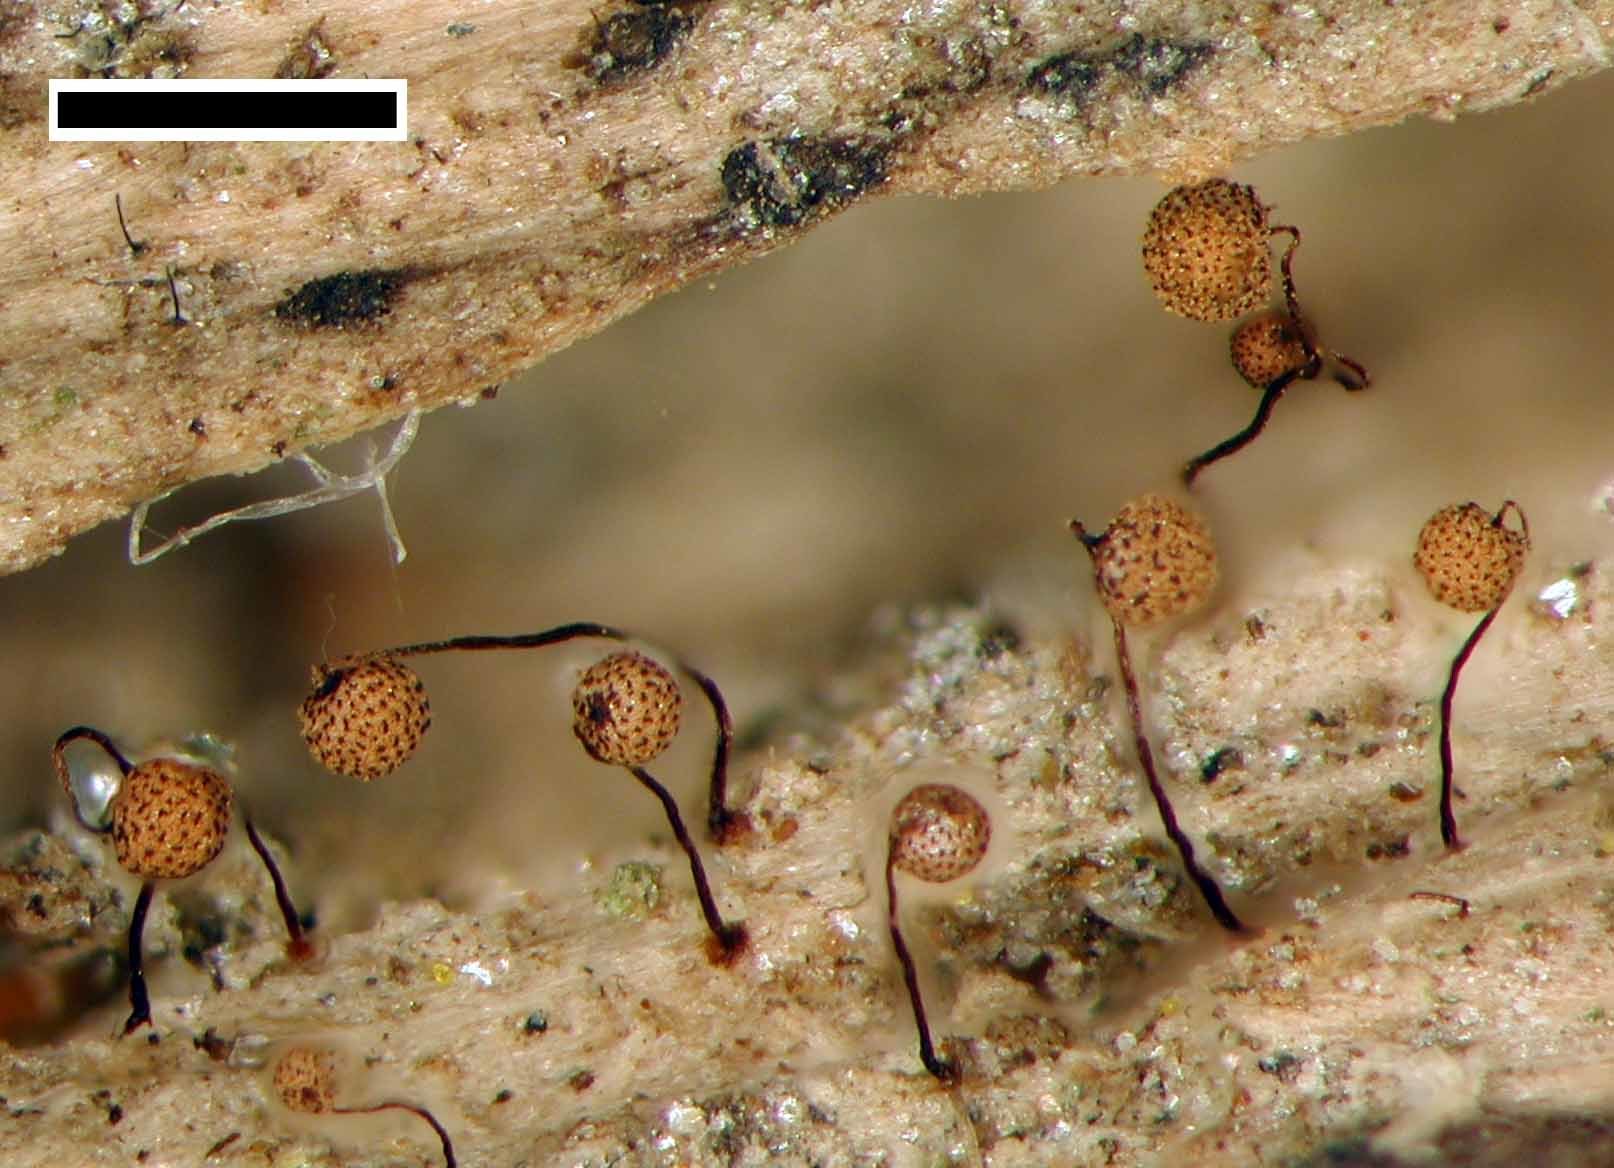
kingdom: Protozoa
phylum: Mycetozoa
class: Myxomycetes
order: Cribrariales
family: Cribrariaceae
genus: Cribraria
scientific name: Cribraria microcarpa
